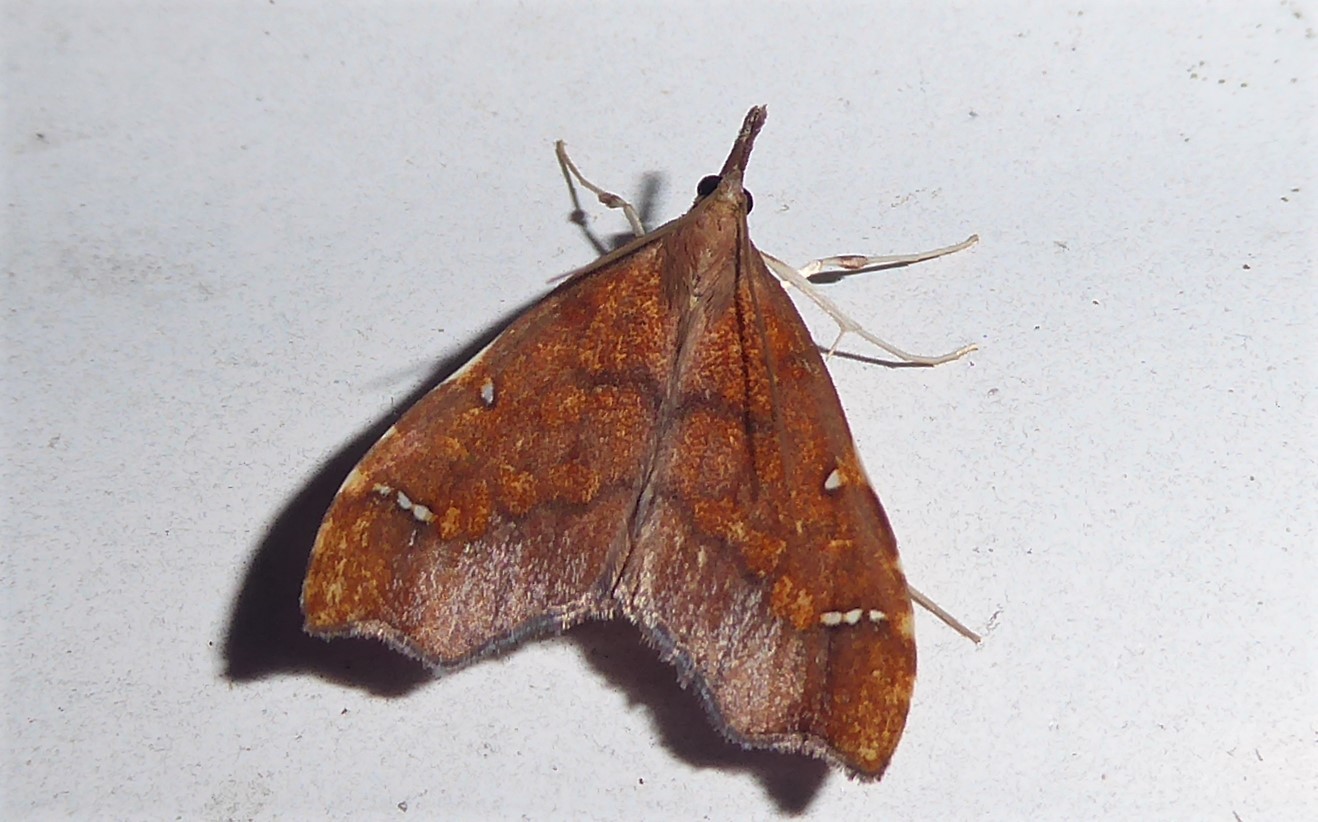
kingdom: Animalia
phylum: Arthropoda
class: Insecta
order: Lepidoptera
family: Crambidae
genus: Deana
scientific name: Deana hybreasalis
